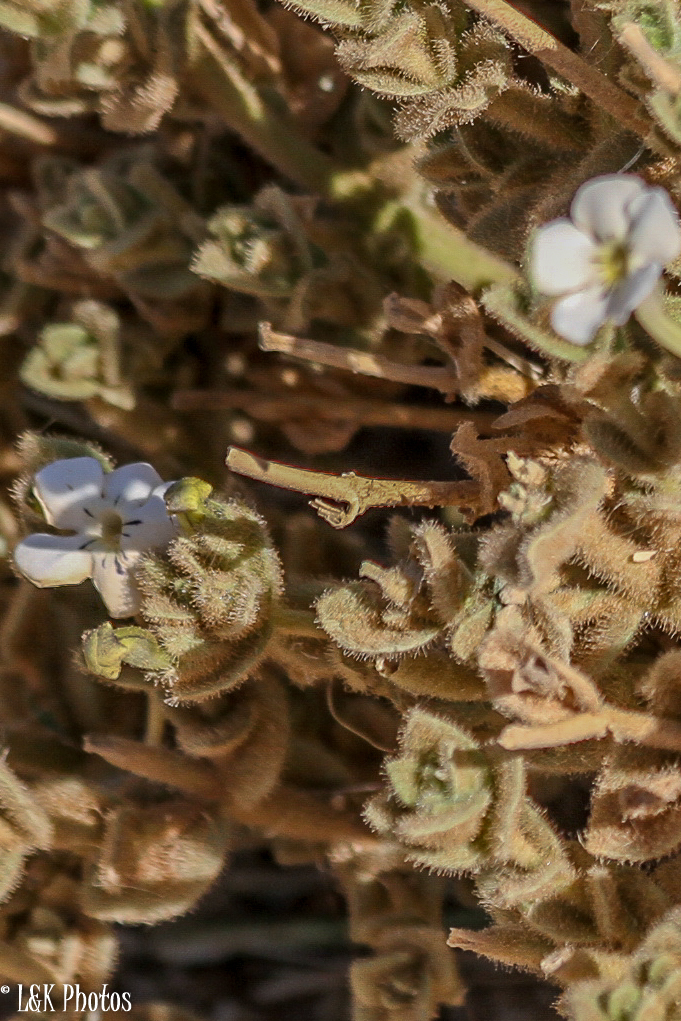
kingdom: Plantae
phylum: Tracheophyta
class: Magnoliopsida
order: Lamiales
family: Scrophulariaceae
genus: Jamesbrittenia
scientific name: Jamesbrittenia maxii
